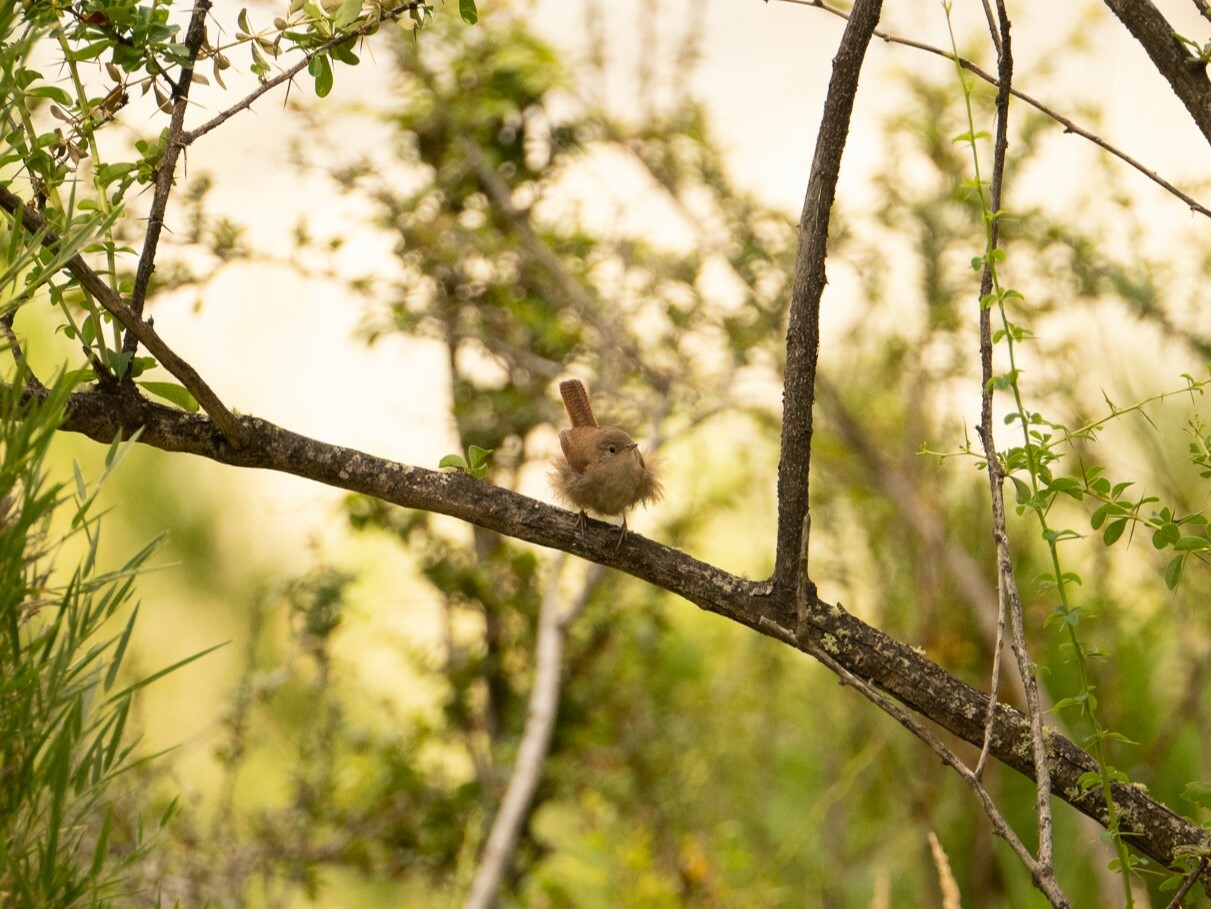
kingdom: Animalia
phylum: Chordata
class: Aves
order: Passeriformes
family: Troglodytidae
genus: Troglodytes
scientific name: Troglodytes aedon
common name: House wren
